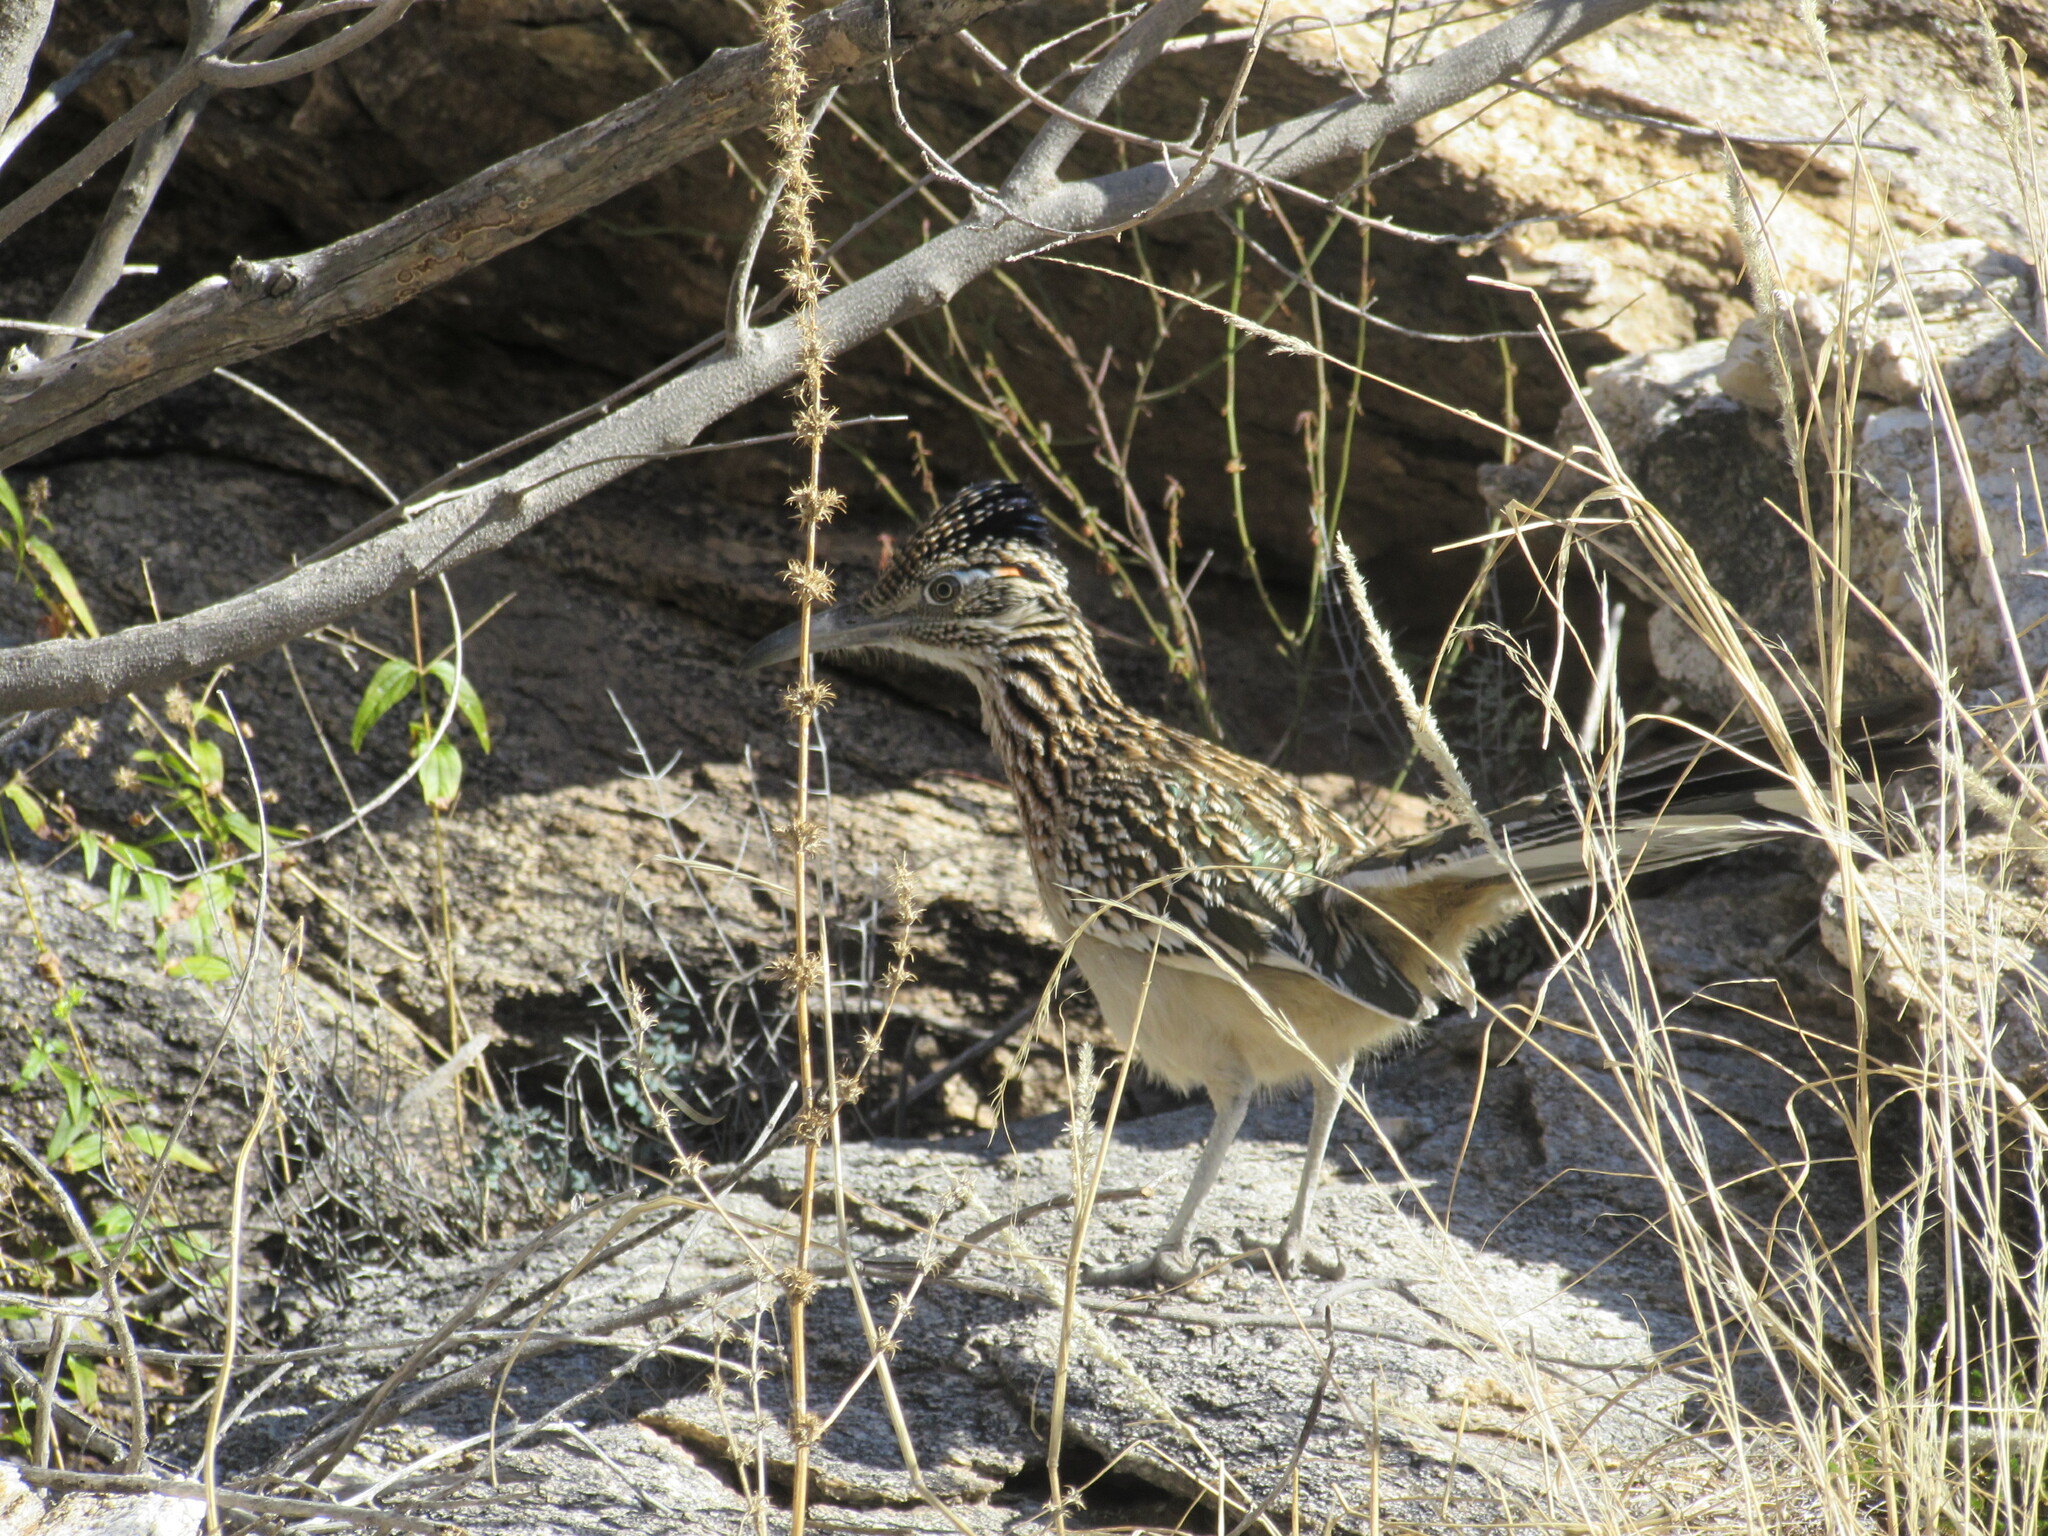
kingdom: Animalia
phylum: Chordata
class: Aves
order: Cuculiformes
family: Cuculidae
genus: Geococcyx
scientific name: Geococcyx californianus
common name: Greater roadrunner
